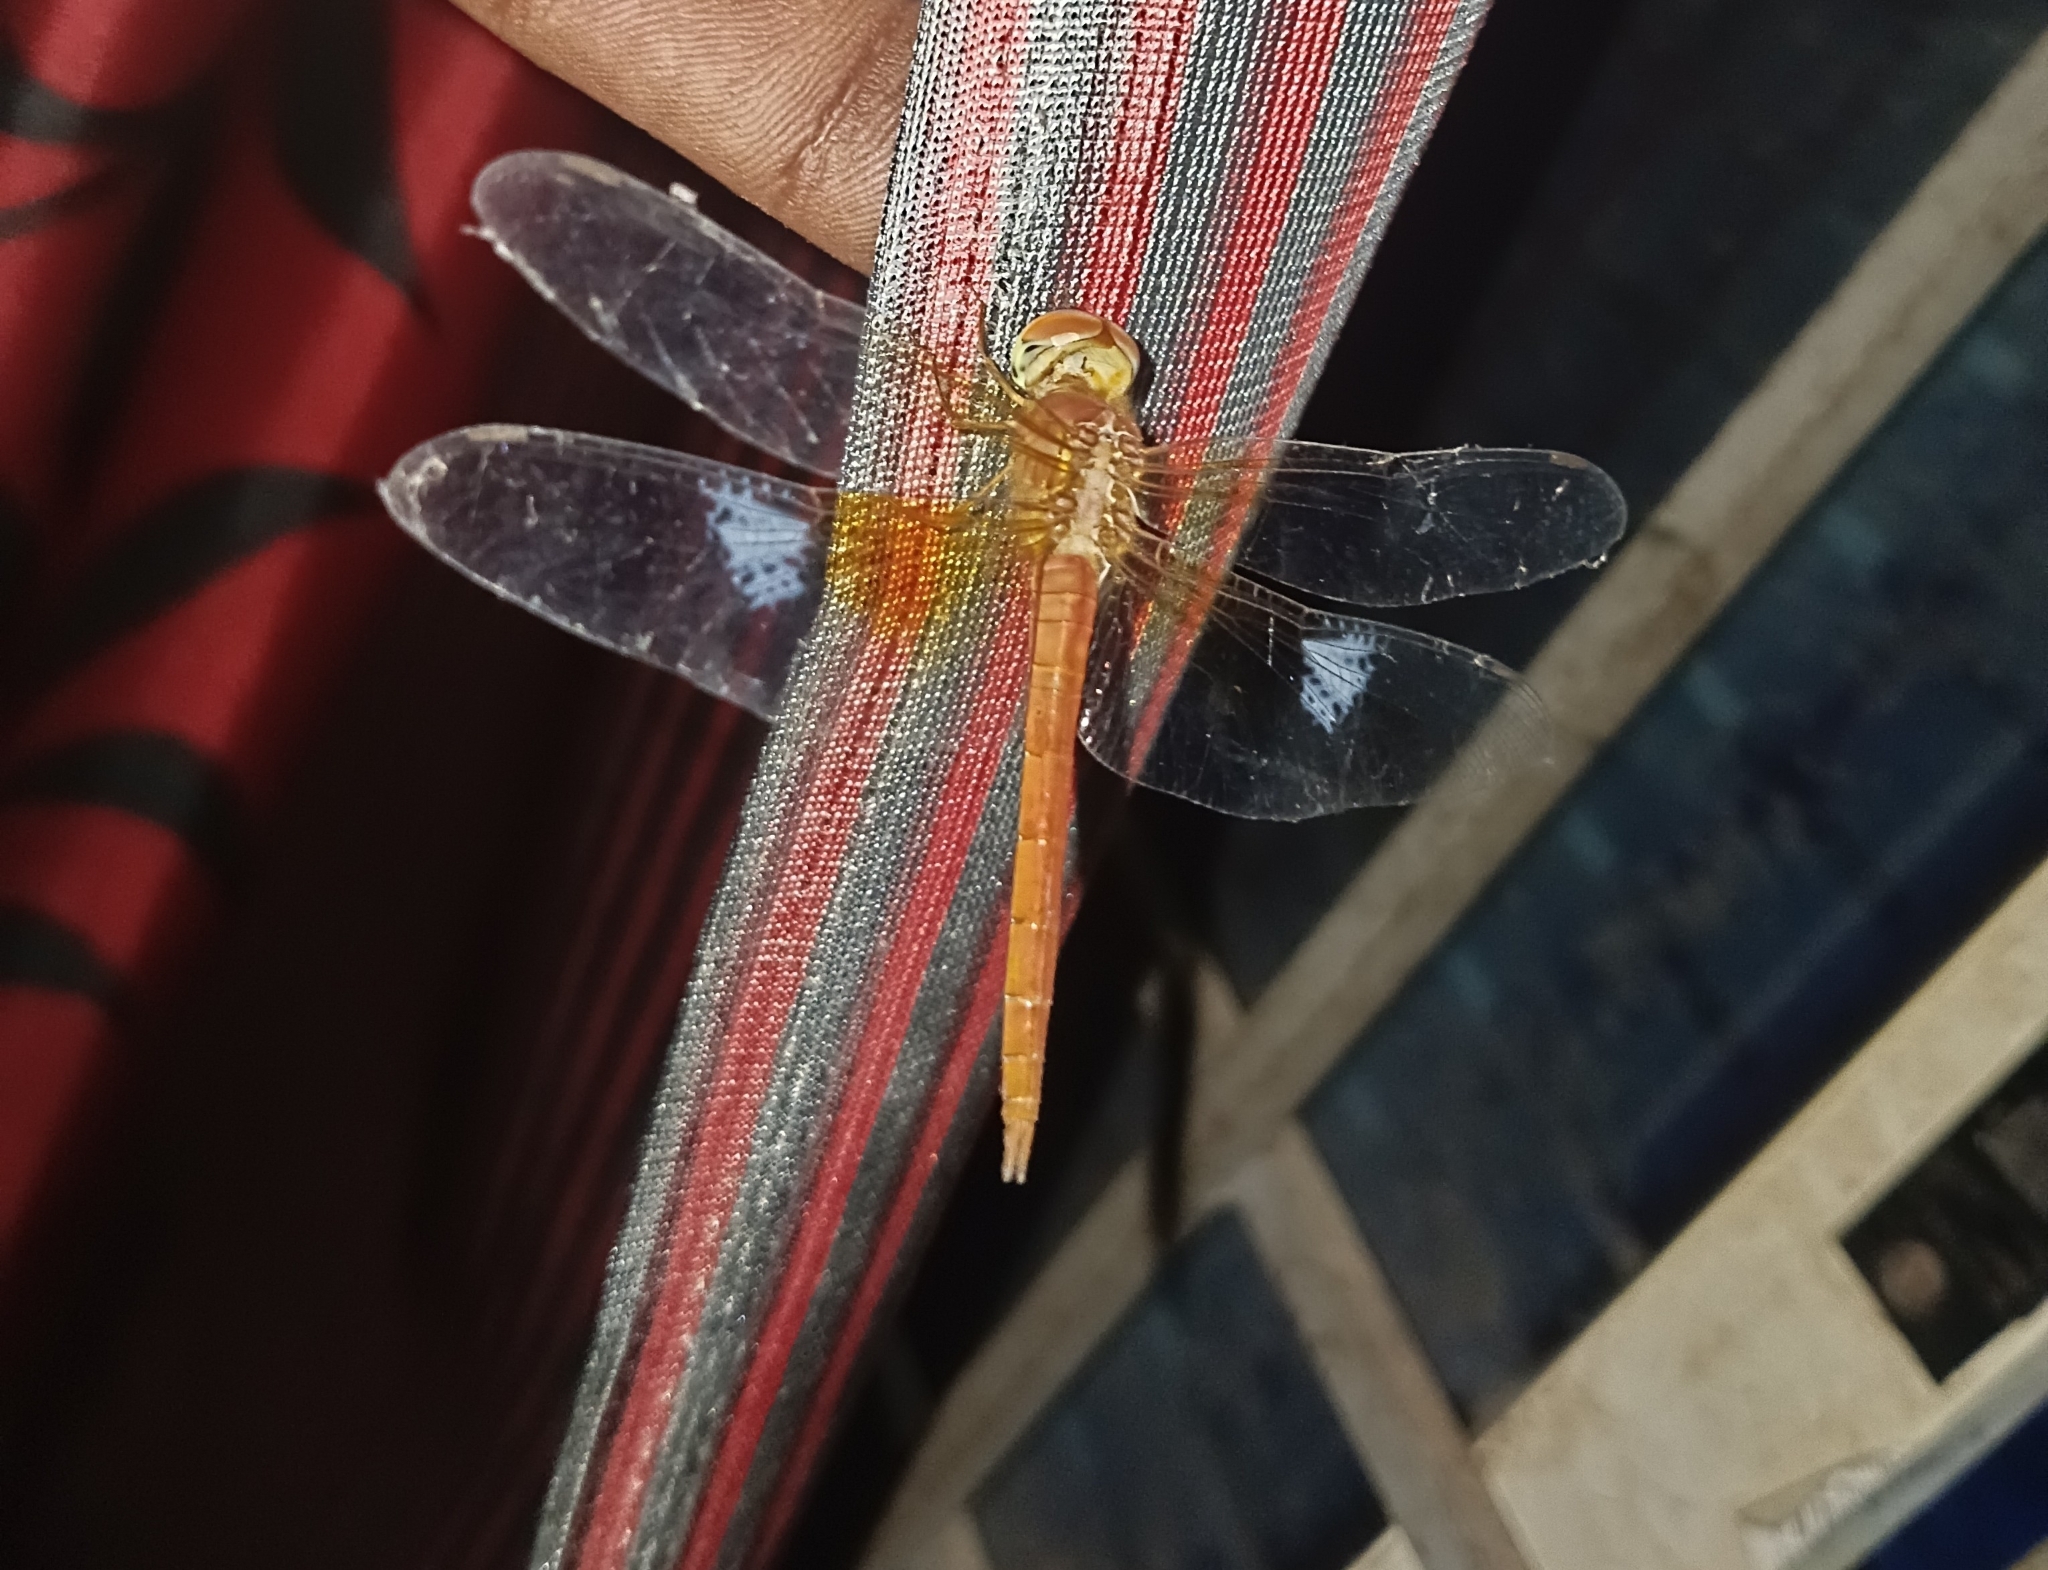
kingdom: Animalia
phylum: Arthropoda
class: Insecta
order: Odonata
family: Libellulidae
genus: Tholymis
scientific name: Tholymis tillarga
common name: Coral-tailed cloud wing
